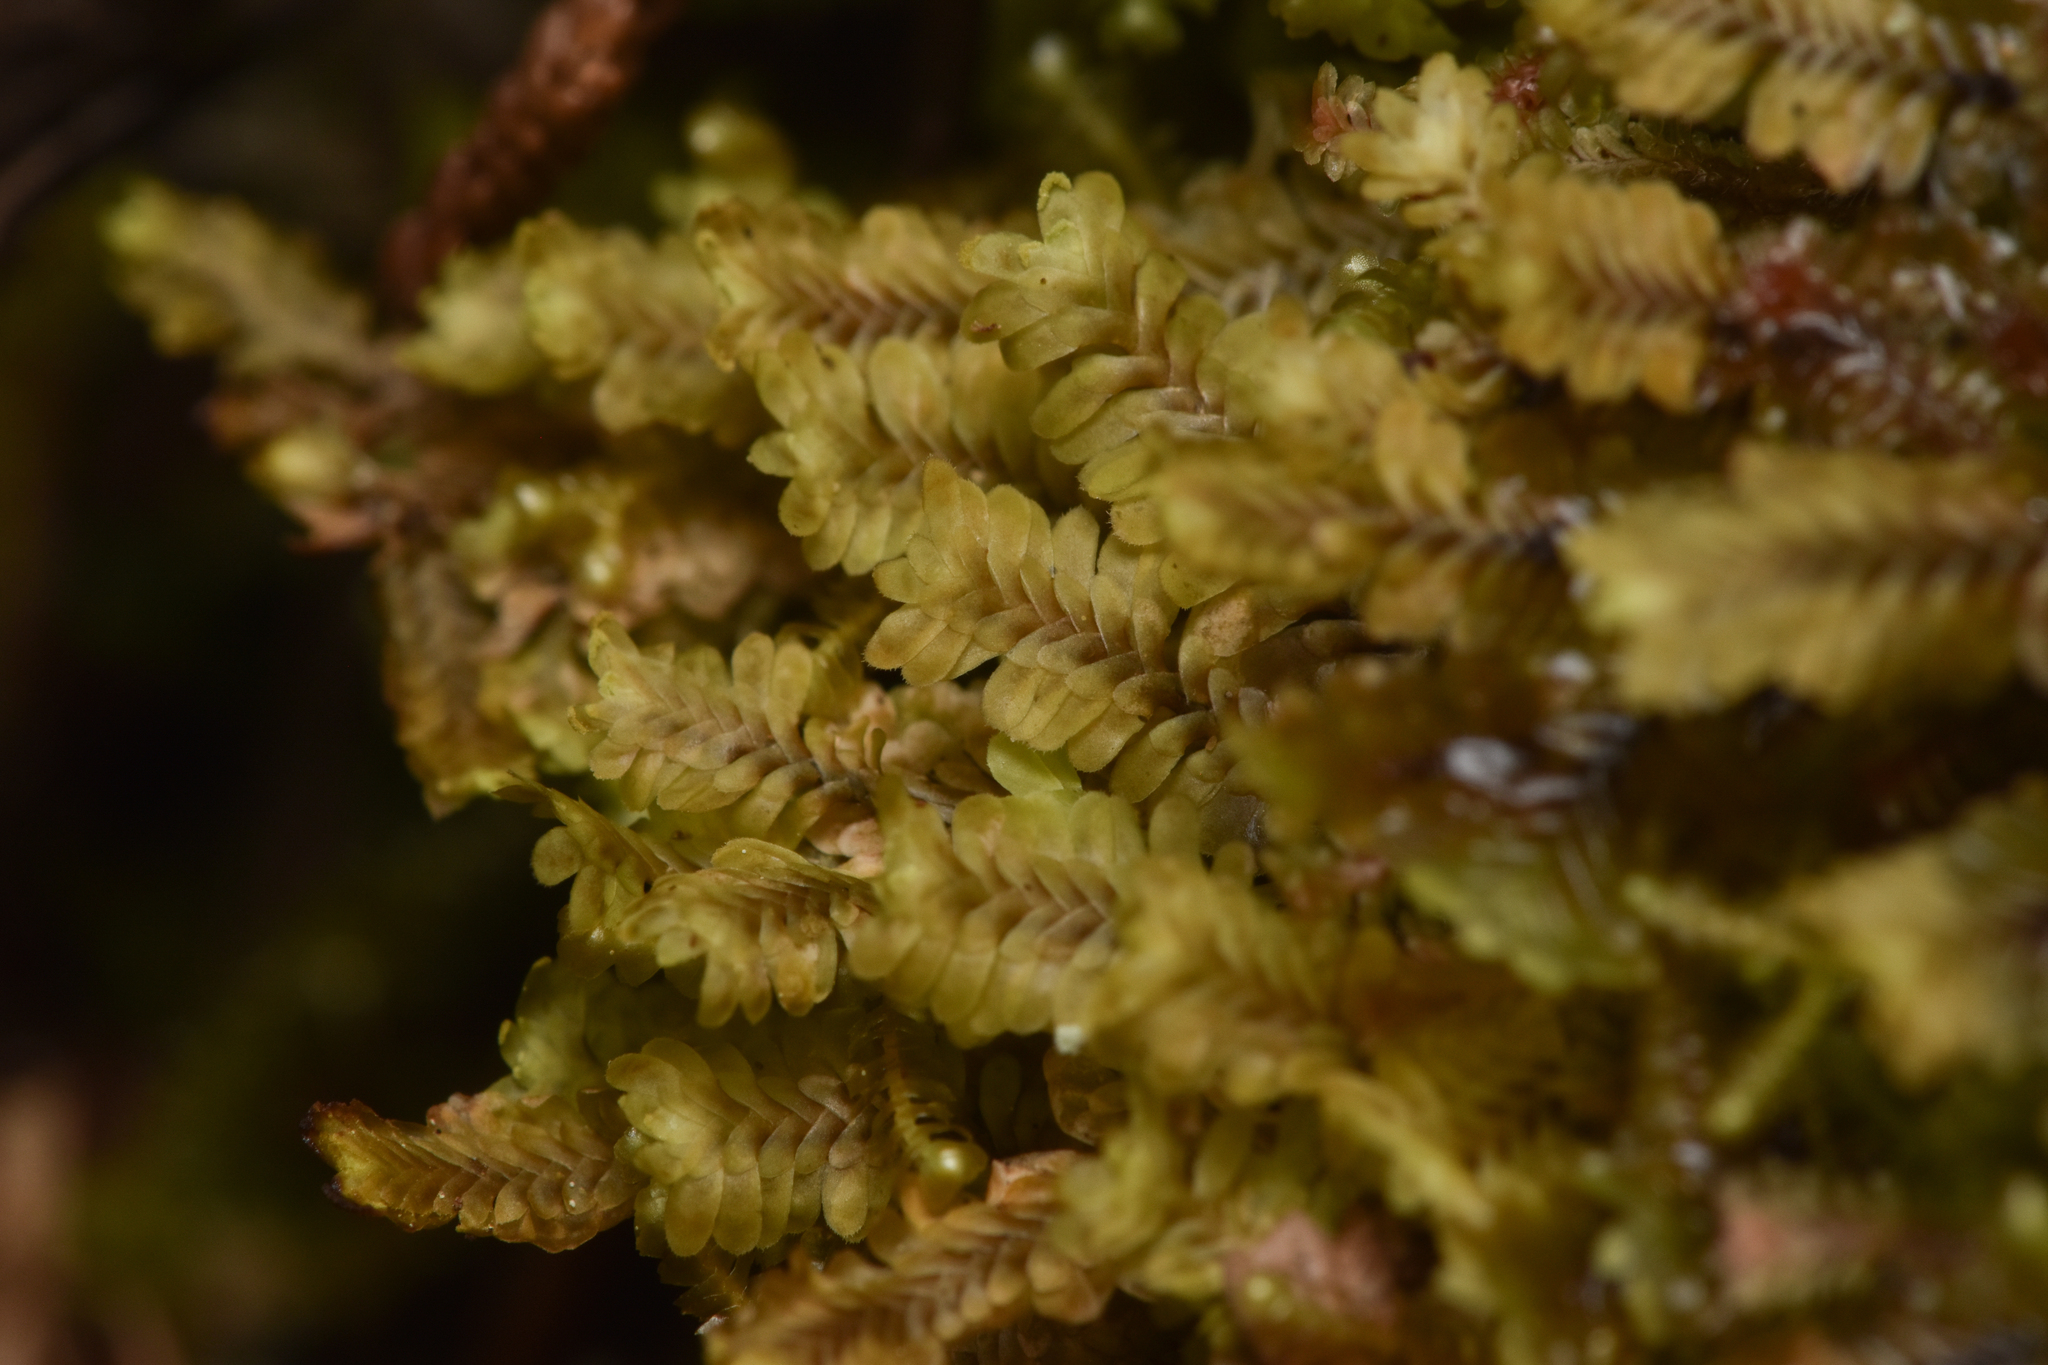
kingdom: Plantae
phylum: Marchantiophyta
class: Jungermanniopsida
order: Jungermanniales
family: Scapaniaceae
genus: Diplophyllum
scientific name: Diplophyllum albicans
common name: White earwort
